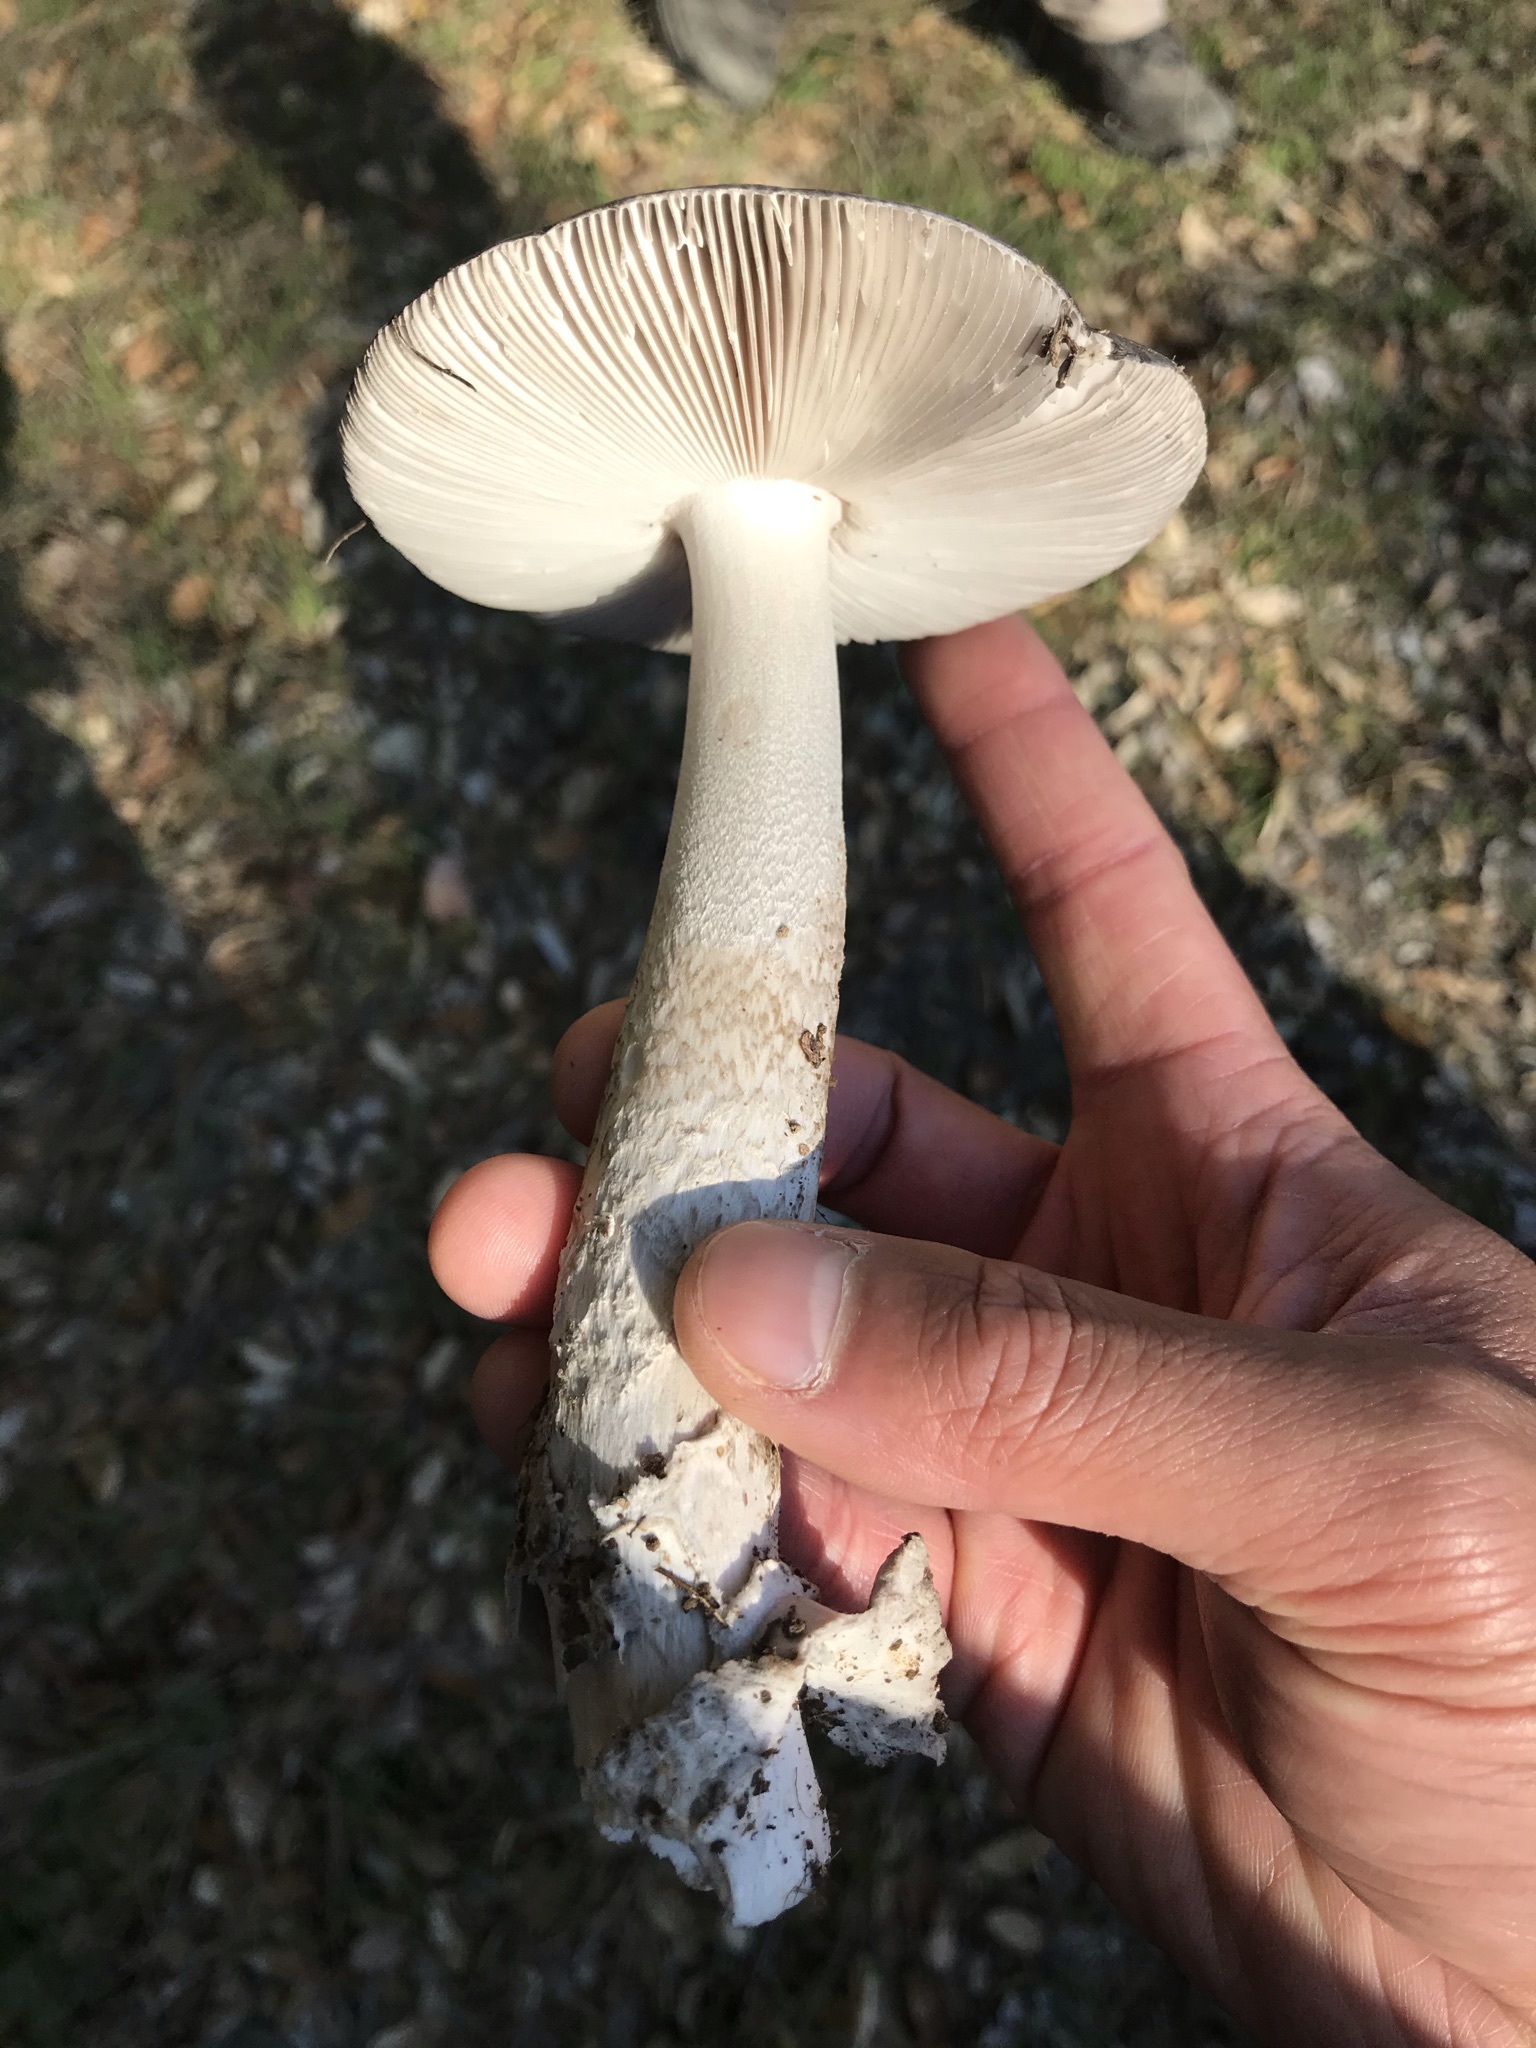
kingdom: Fungi
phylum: Basidiomycota
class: Agaricomycetes
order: Agaricales
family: Amanitaceae
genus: Amanita
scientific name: Amanita protecta
